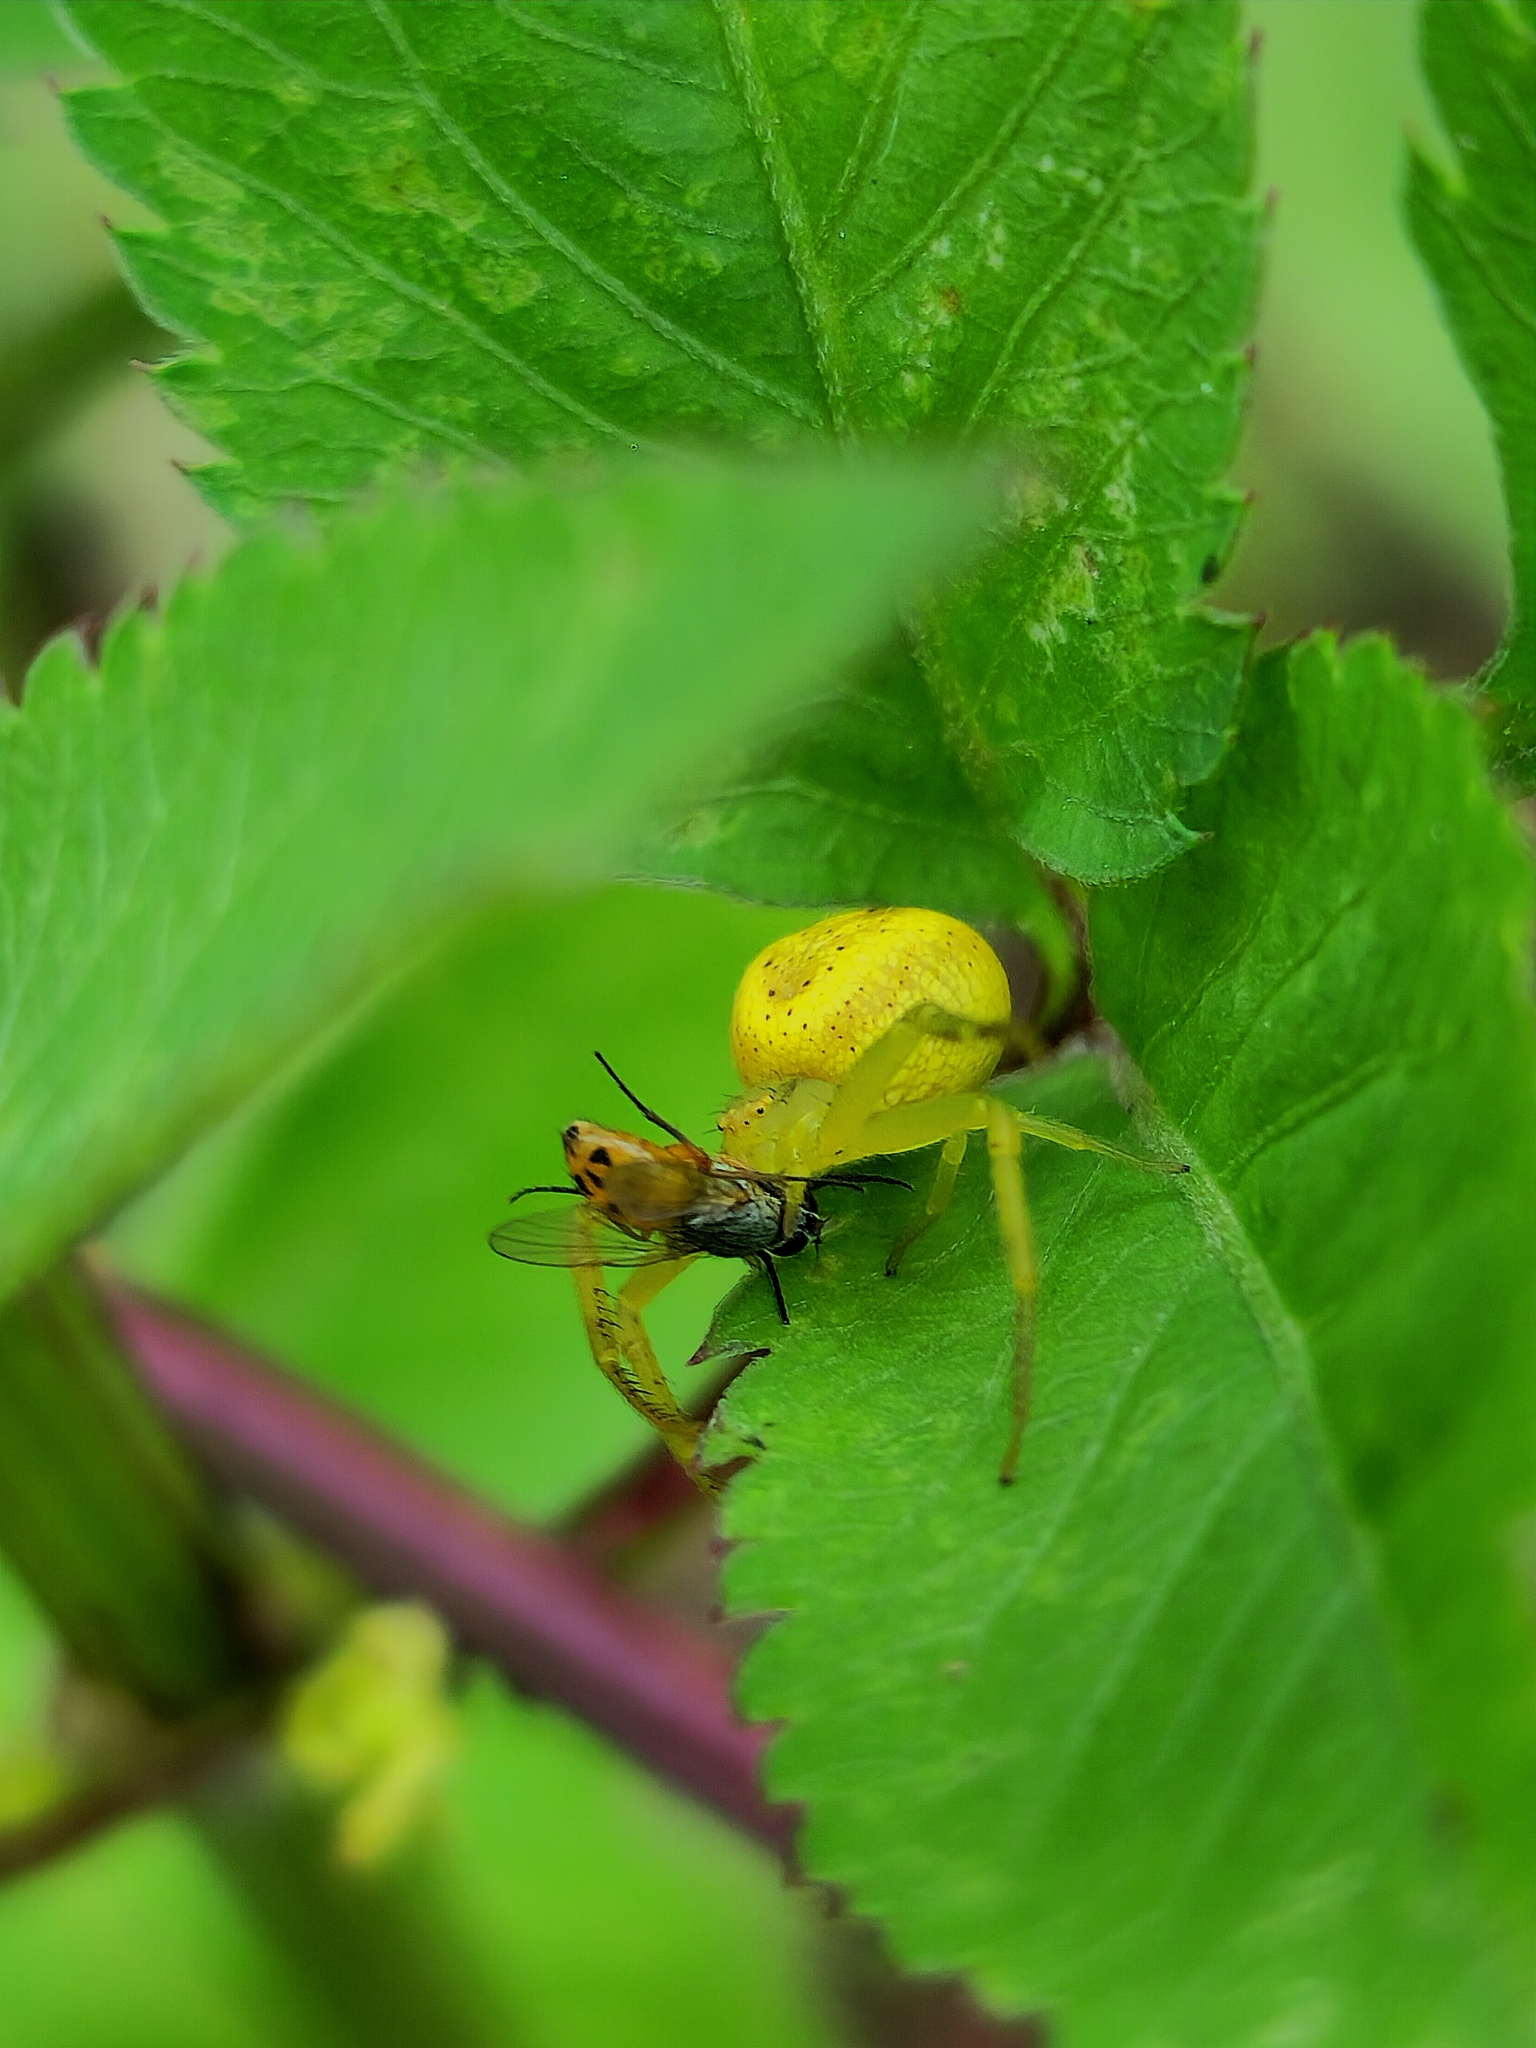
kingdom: Animalia
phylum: Arthropoda
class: Arachnida
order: Araneae
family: Thomisidae
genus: Misumenops
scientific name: Misumenops
